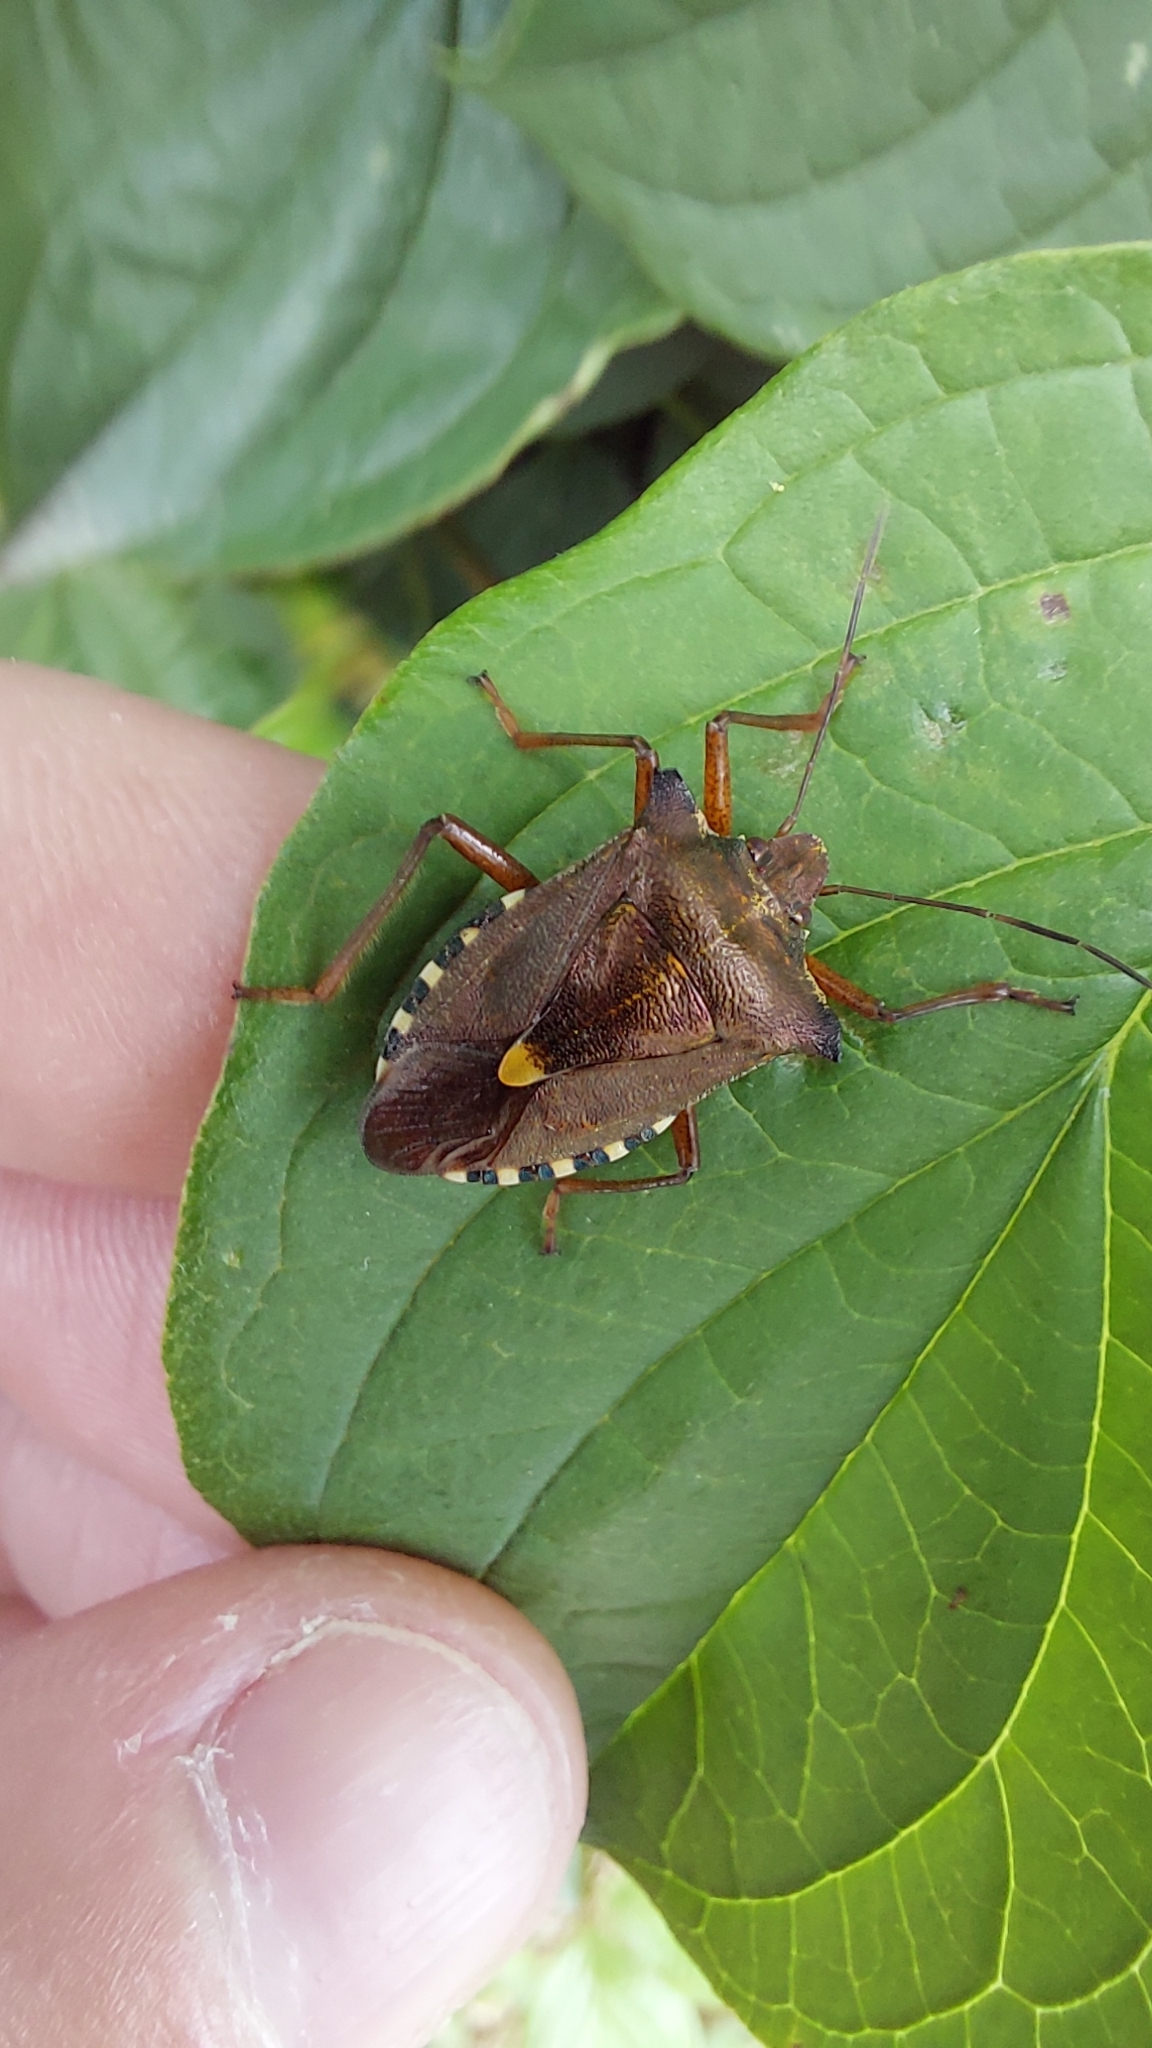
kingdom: Animalia
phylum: Arthropoda
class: Insecta
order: Hemiptera
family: Pentatomidae
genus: Pentatoma
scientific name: Pentatoma rufipes
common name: Forest bug
